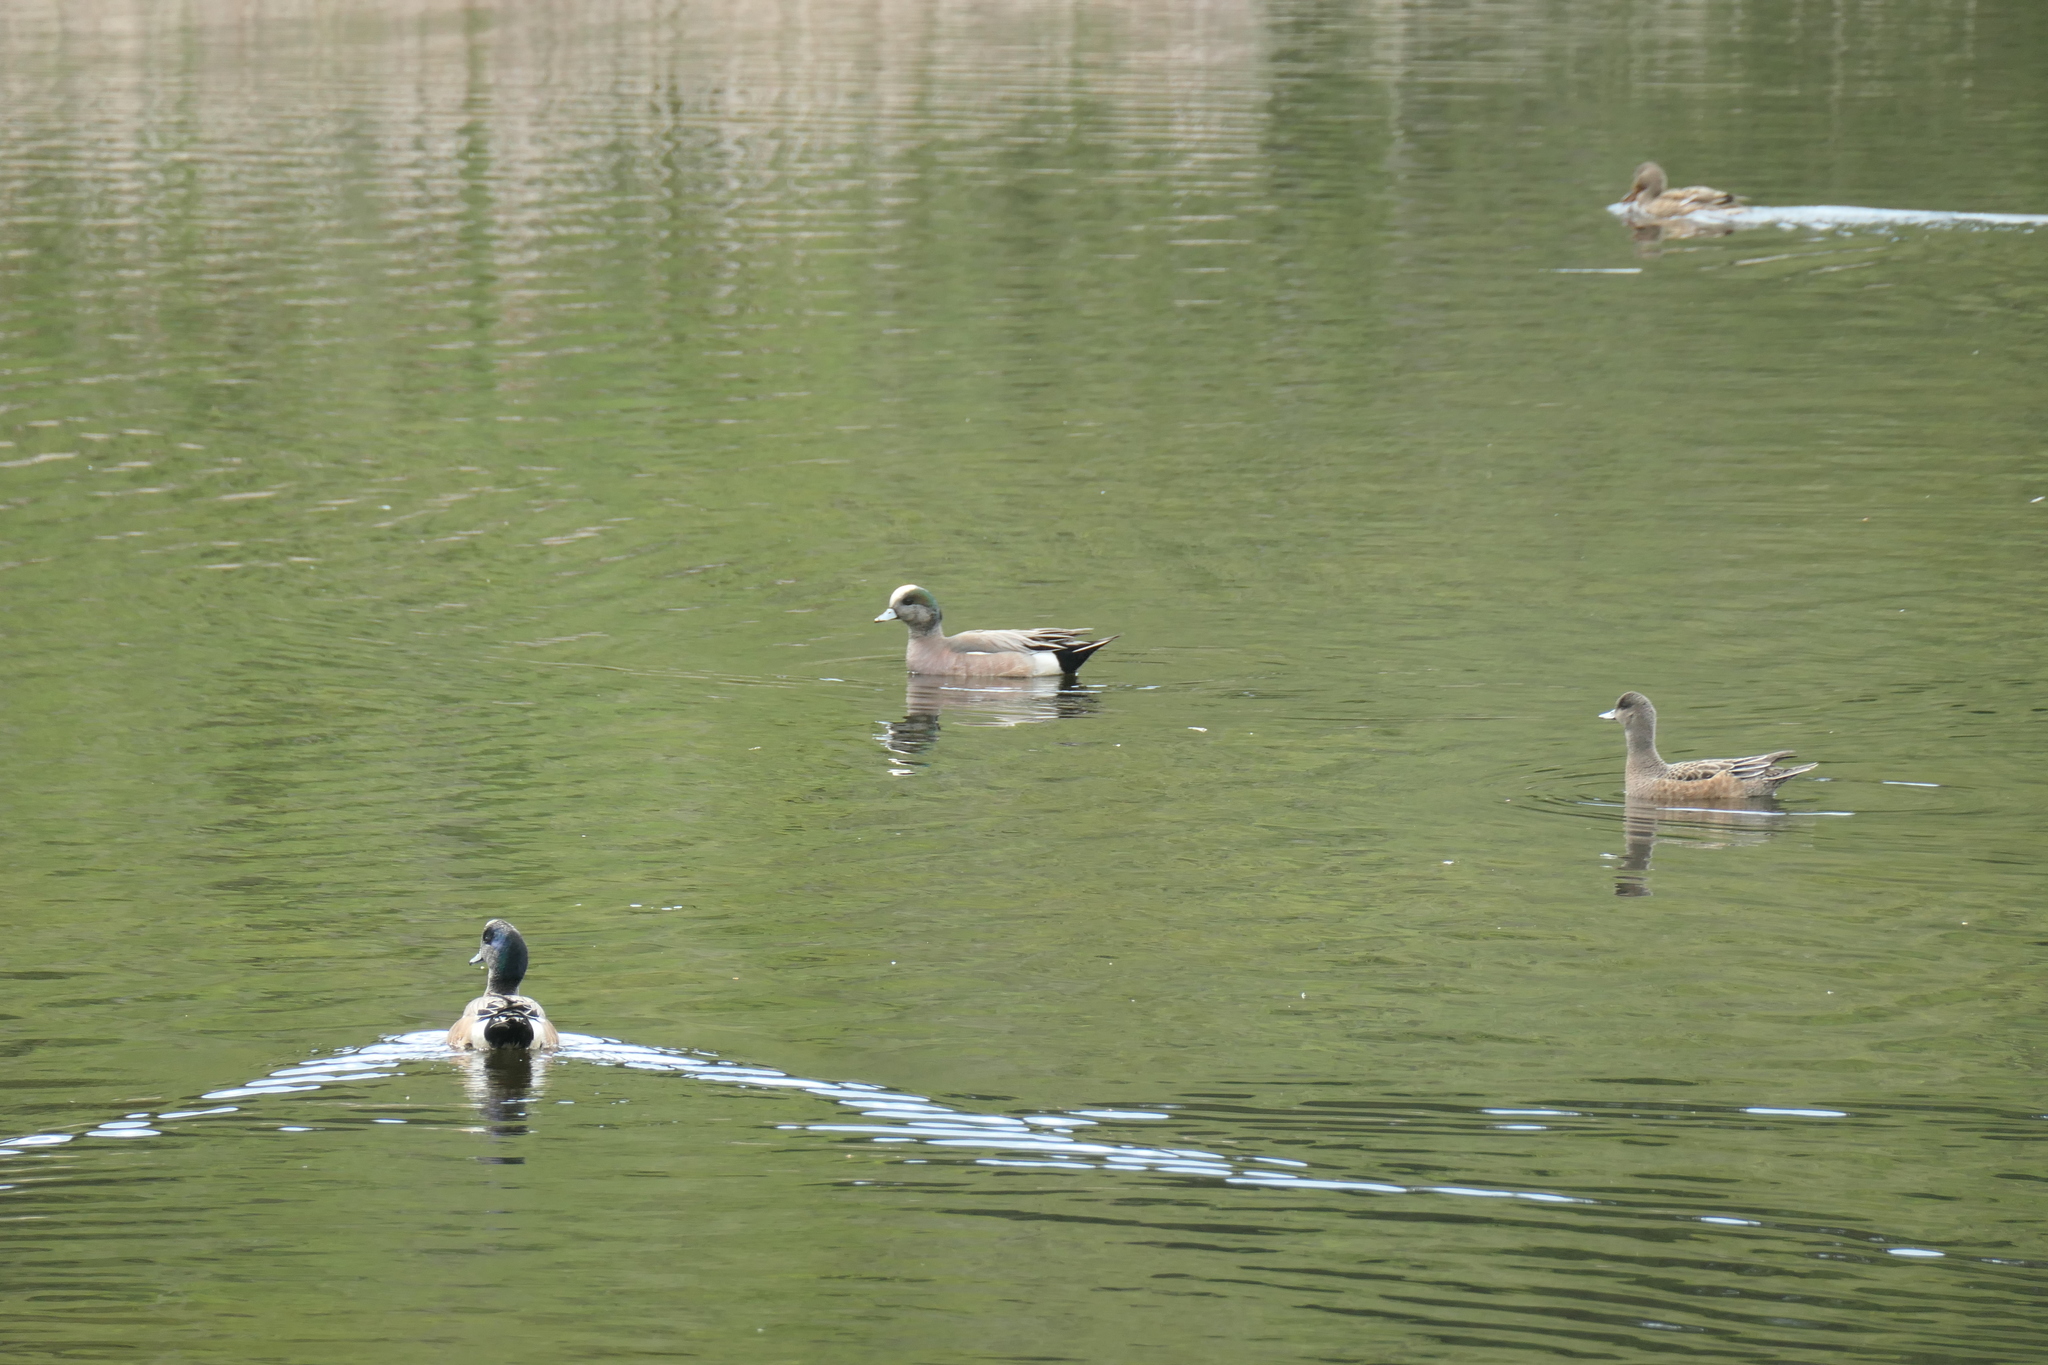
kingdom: Animalia
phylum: Chordata
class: Aves
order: Anseriformes
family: Anatidae
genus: Mareca
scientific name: Mareca americana
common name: American wigeon
